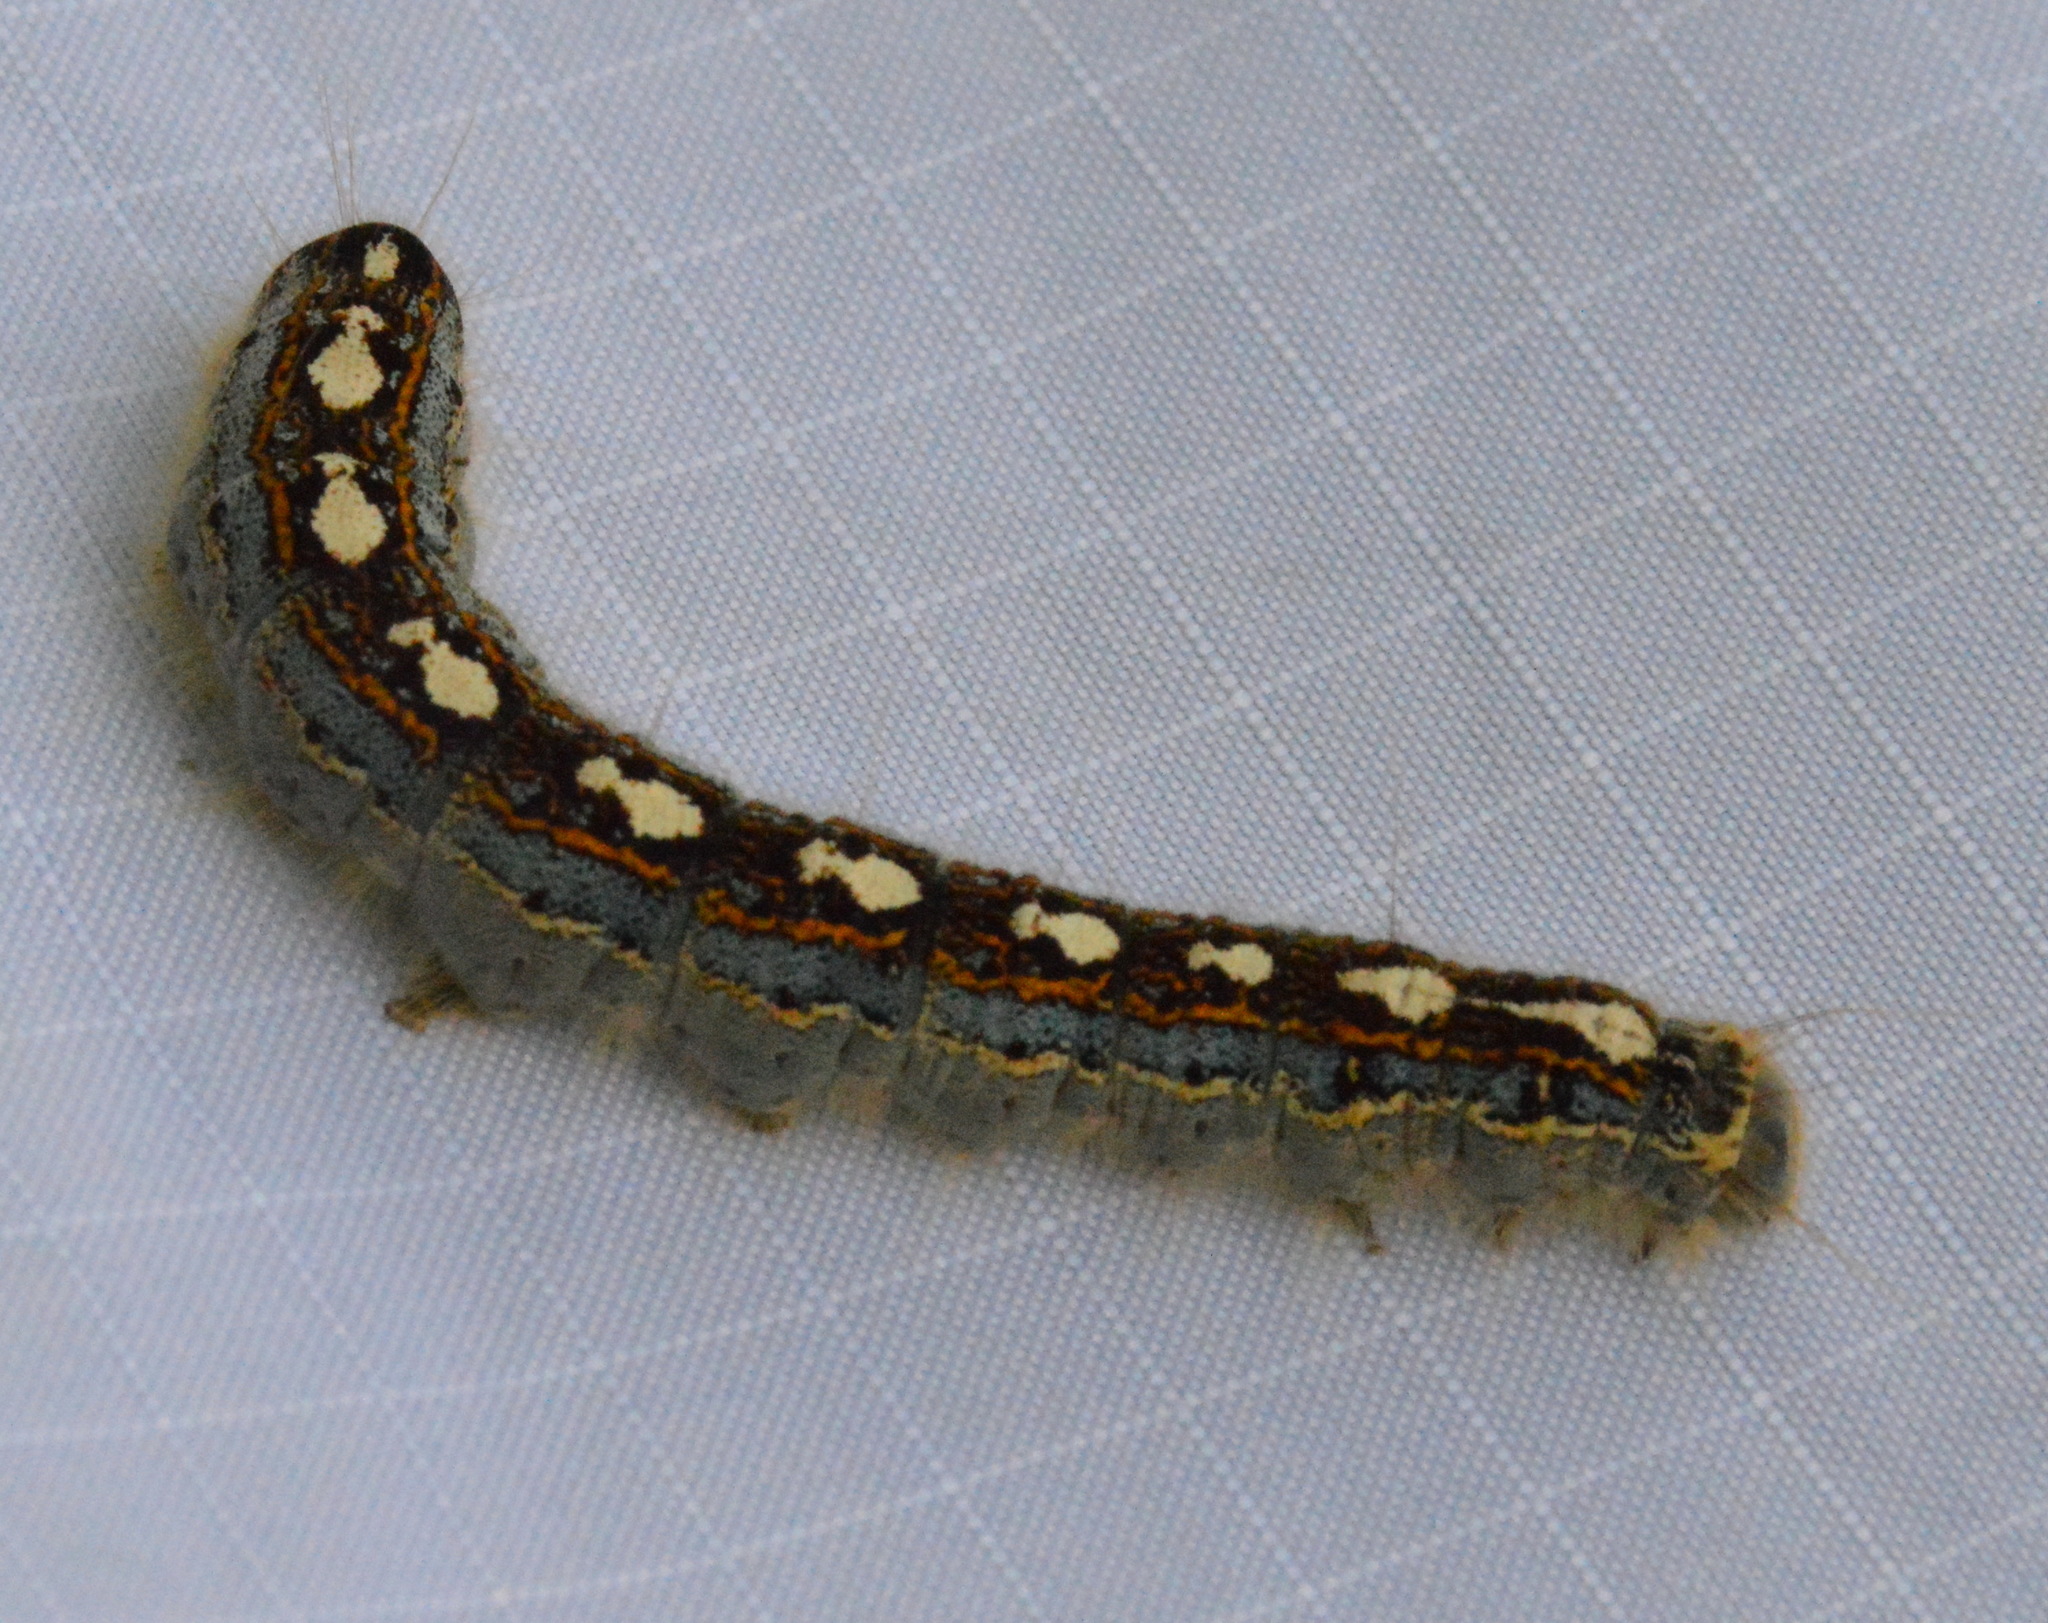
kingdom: Animalia
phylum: Arthropoda
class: Insecta
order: Lepidoptera
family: Lasiocampidae
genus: Malacosoma
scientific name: Malacosoma disstria
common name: Forest tent caterpillar
